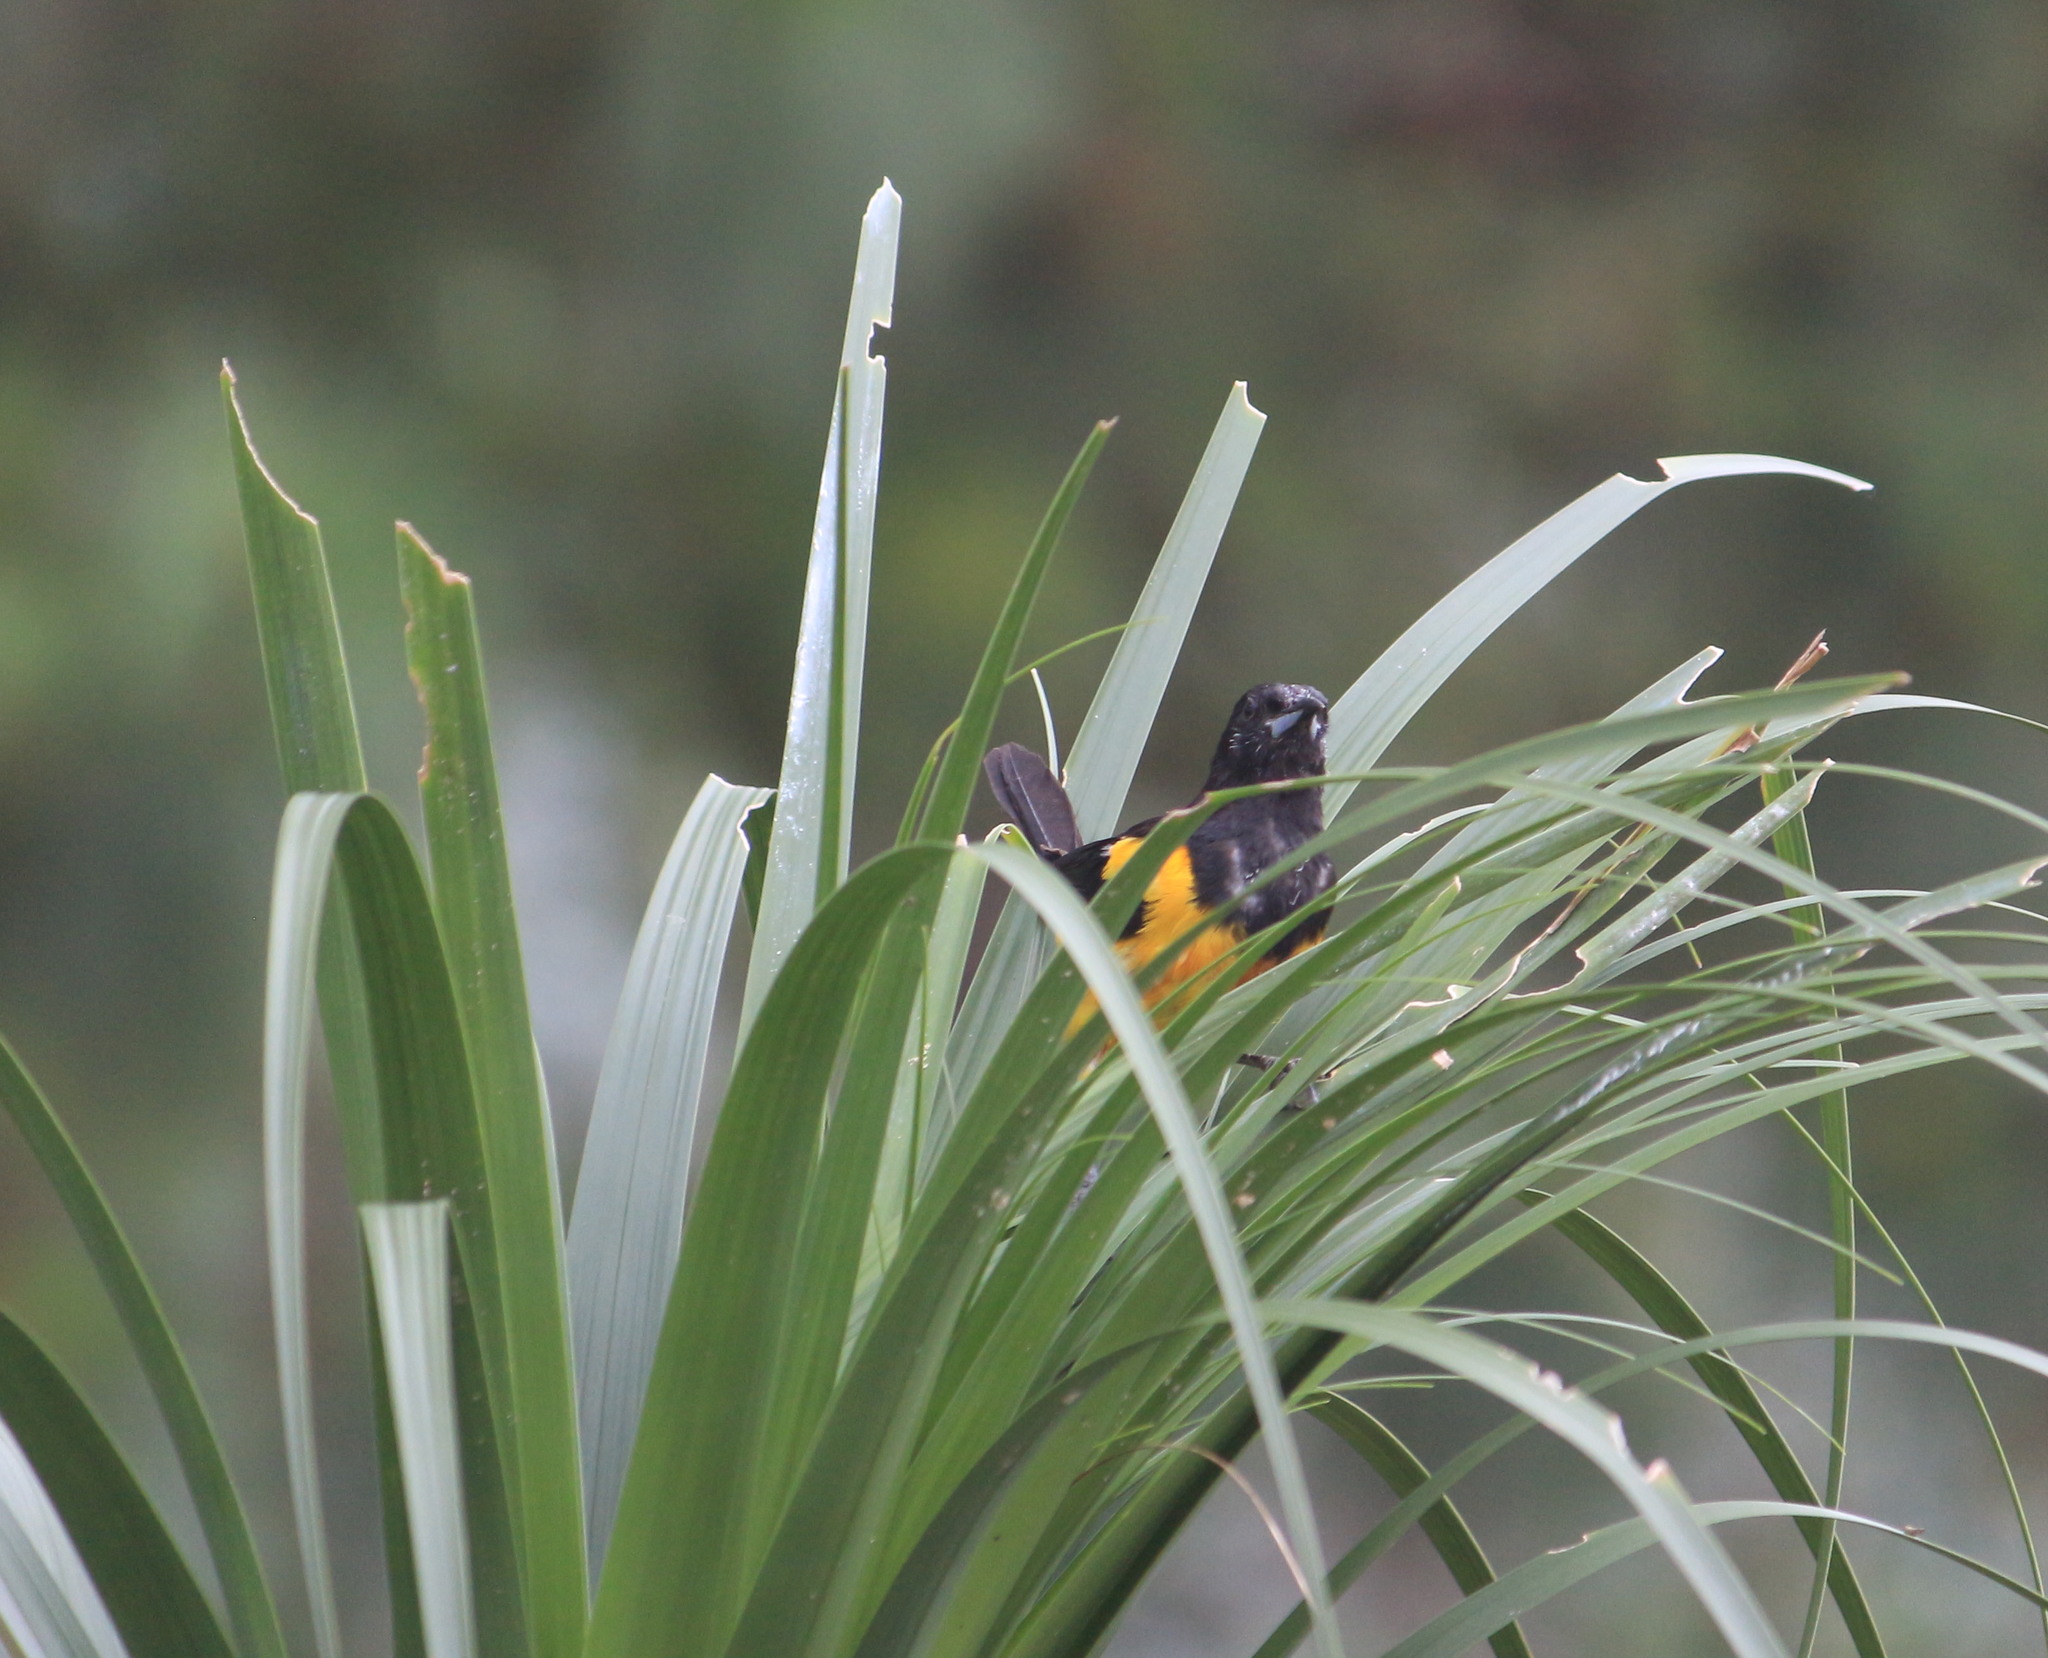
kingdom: Animalia
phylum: Chordata
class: Aves
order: Passeriformes
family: Icteridae
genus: Icterus
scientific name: Icterus wagleri
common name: Black-vented oriole
